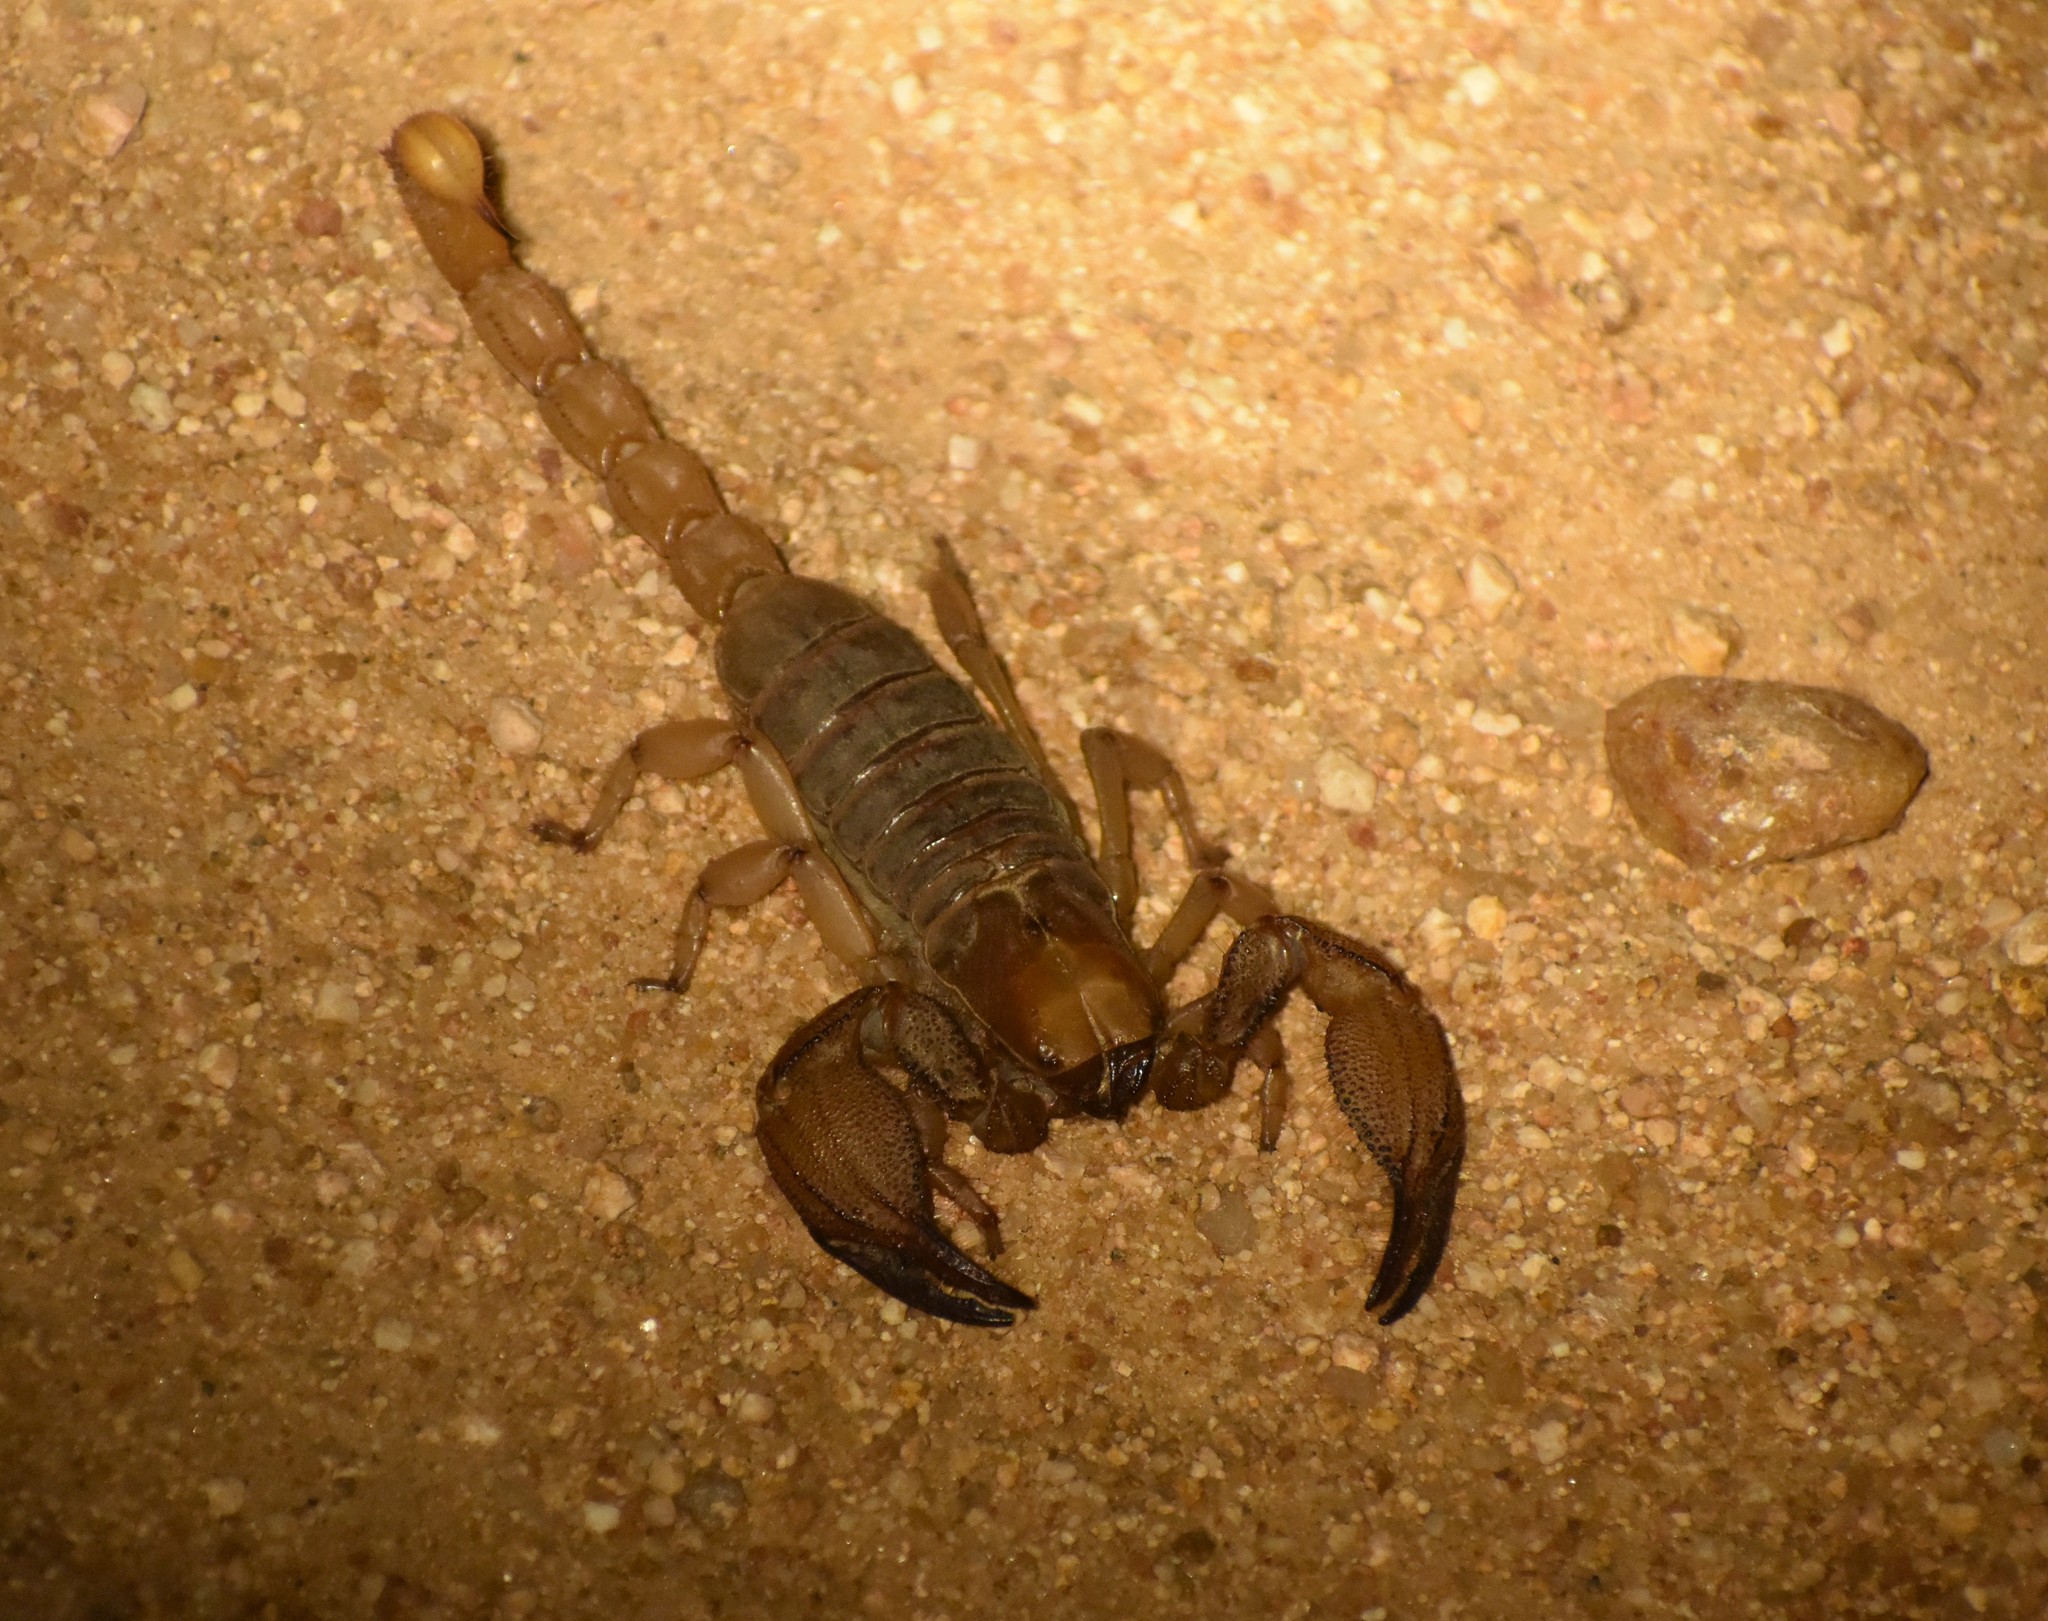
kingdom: Animalia
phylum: Arthropoda
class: Arachnida
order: Scorpiones
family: Scorpionidae
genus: Opistophthalmus
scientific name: Opistophthalmus glabrifrons
